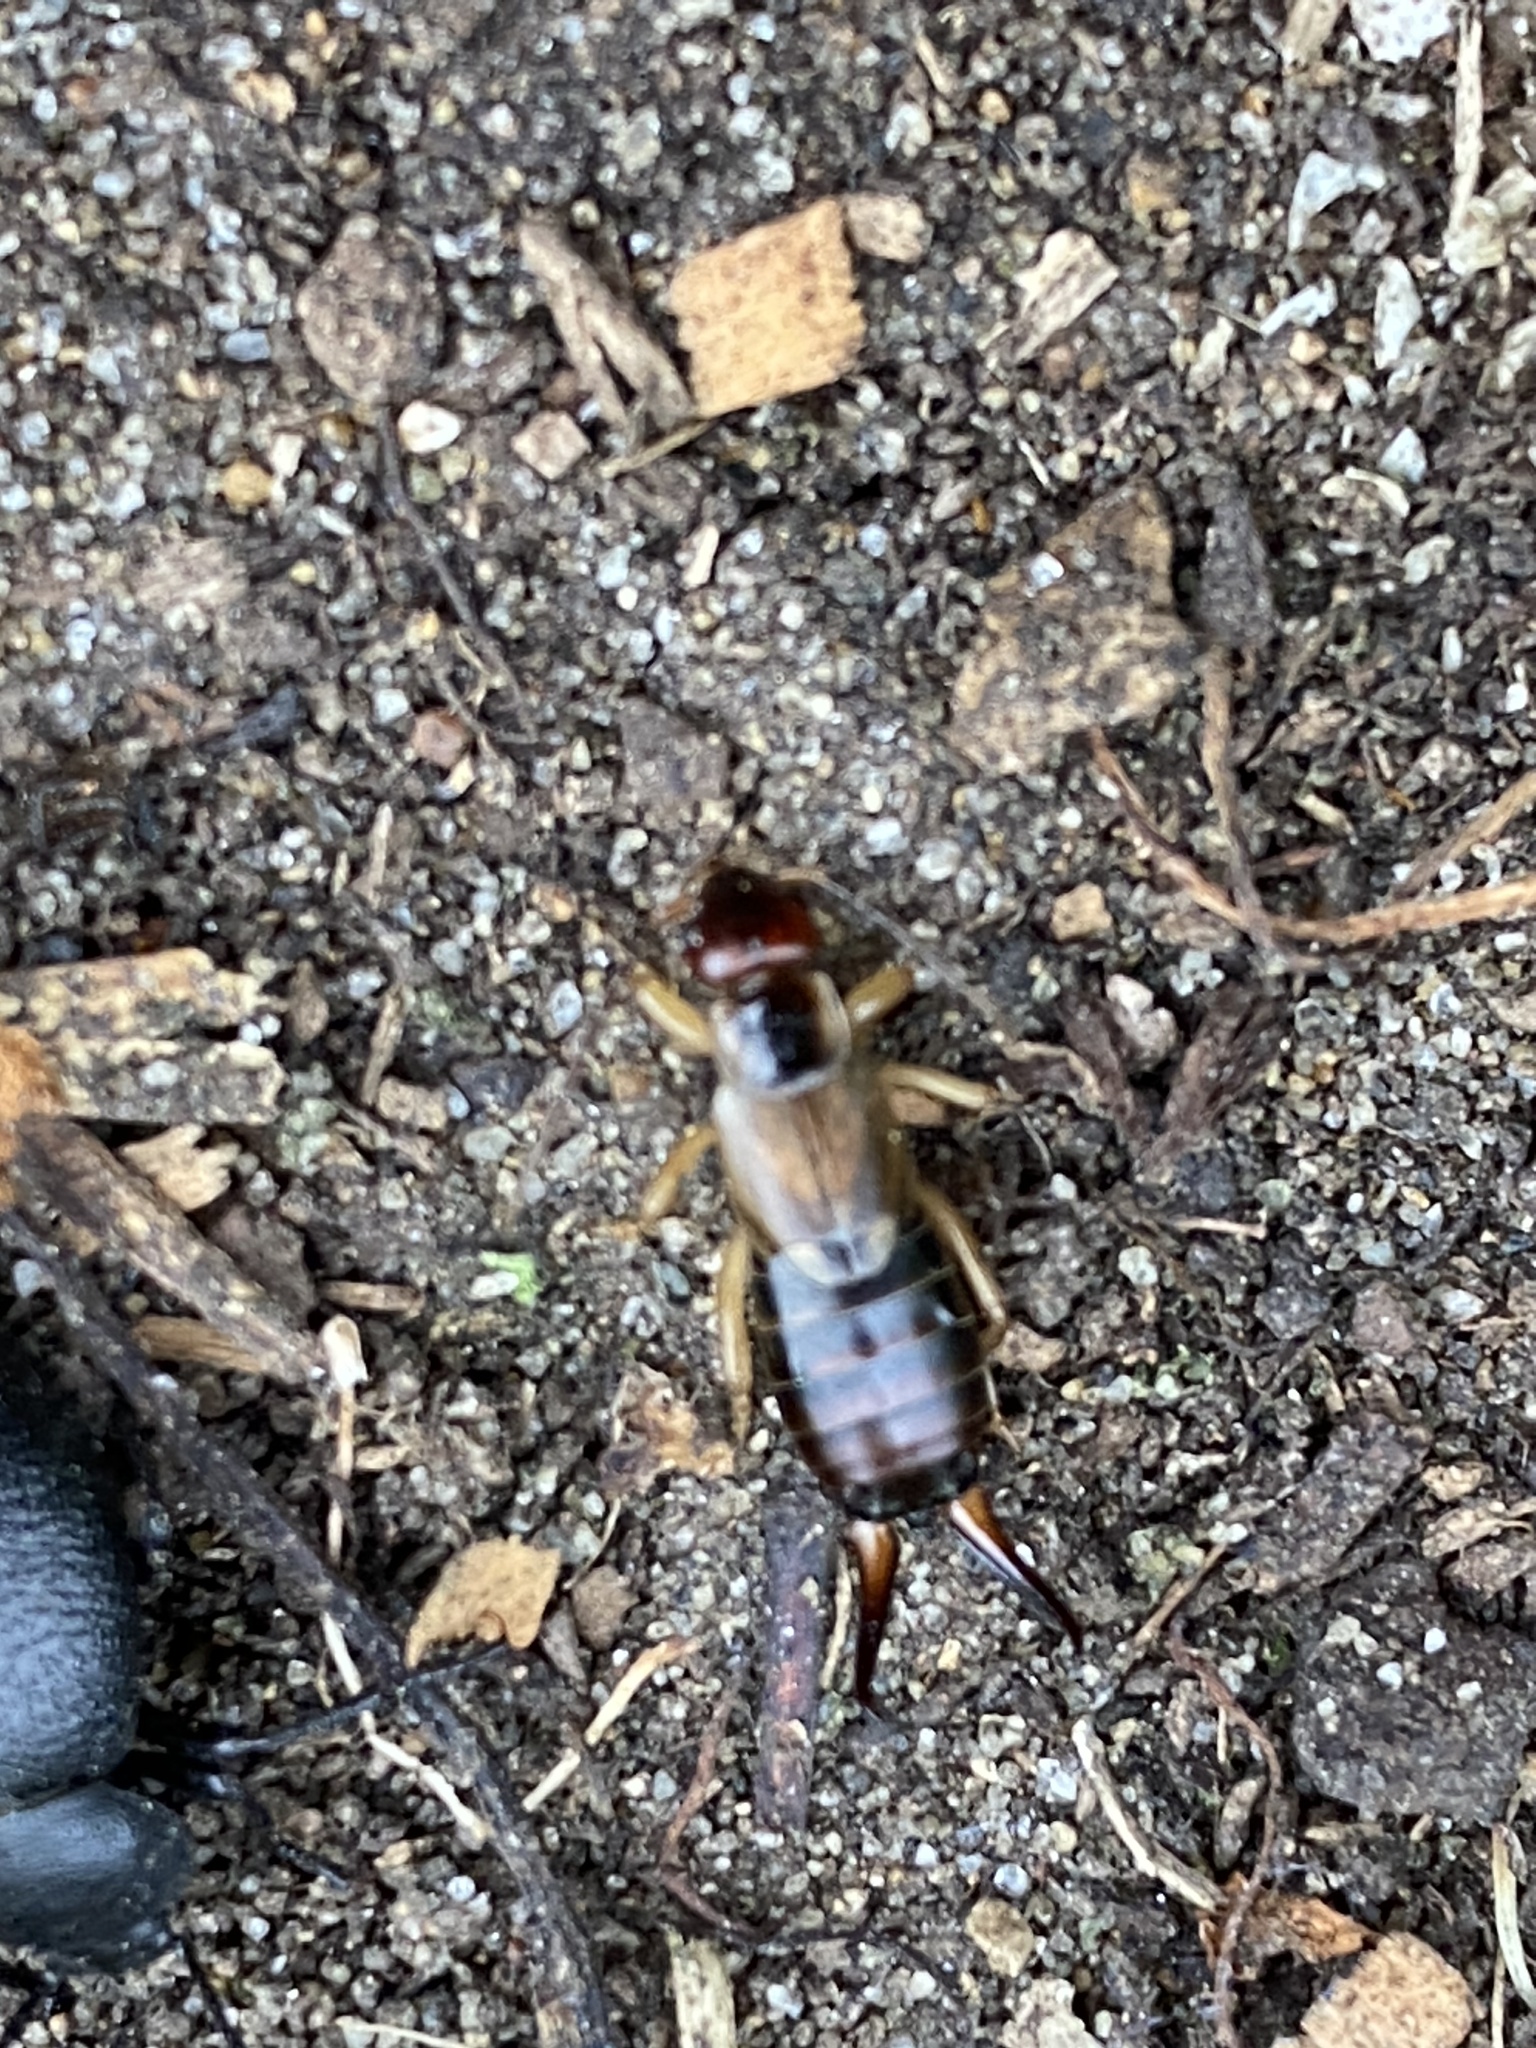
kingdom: Animalia
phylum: Arthropoda
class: Insecta
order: Dermaptera
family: Forficulidae
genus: Forficula
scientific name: Forficula
